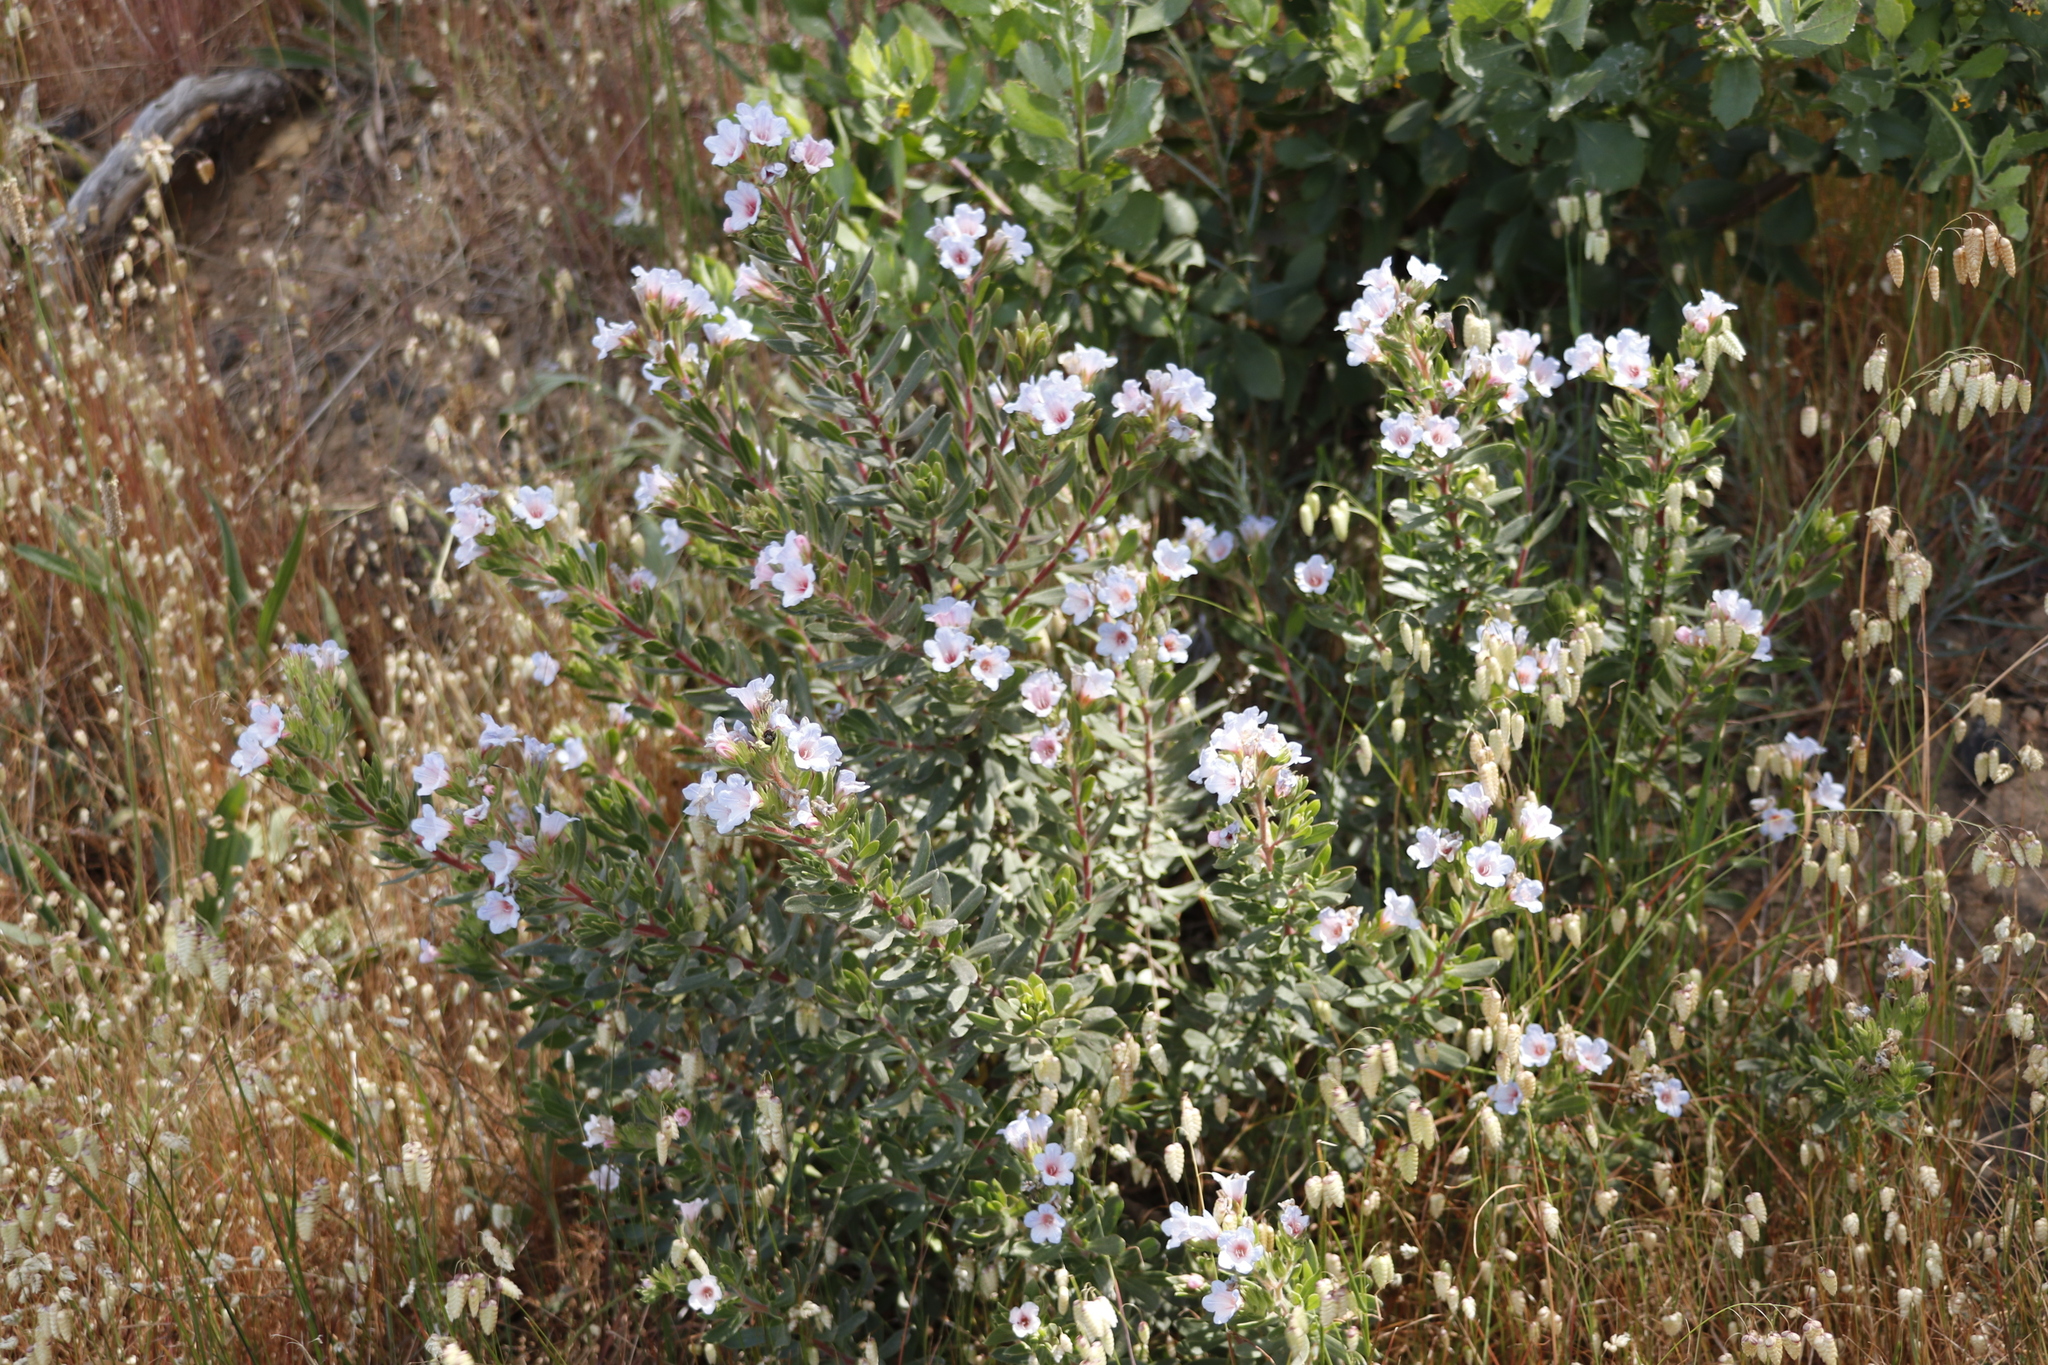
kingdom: Plantae
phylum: Tracheophyta
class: Magnoliopsida
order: Boraginales
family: Boraginaceae
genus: Lobostemon
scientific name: Lobostemon fruticosus
